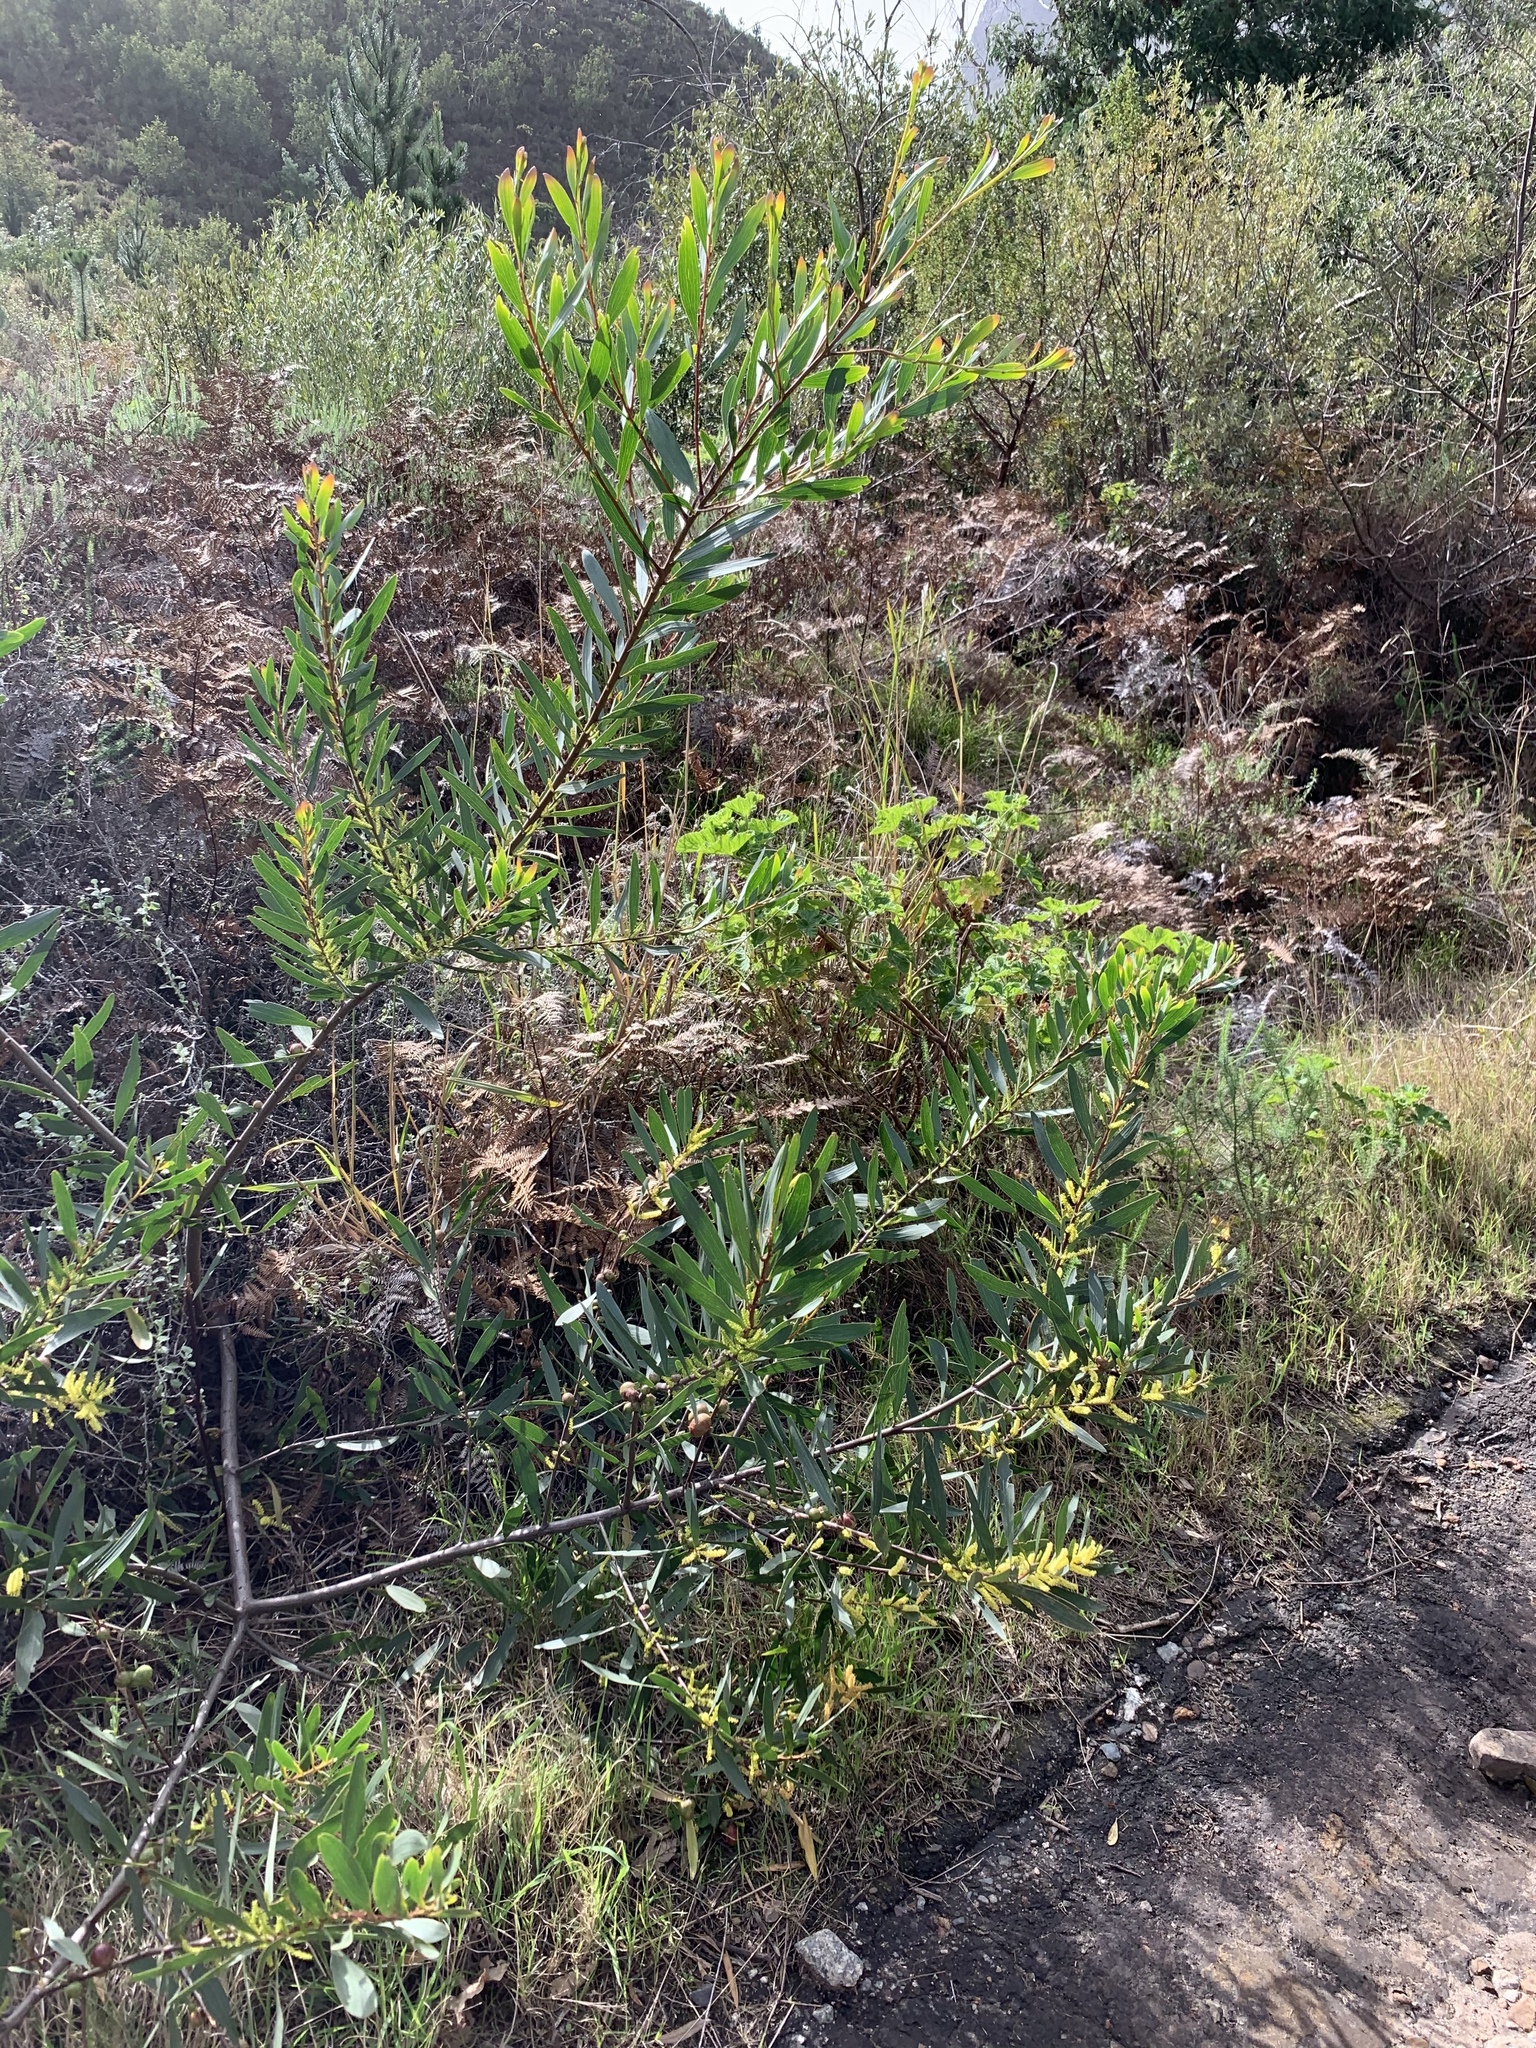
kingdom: Plantae
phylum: Tracheophyta
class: Magnoliopsida
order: Fabales
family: Fabaceae
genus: Acacia
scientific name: Acacia longifolia
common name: Sydney golden wattle
